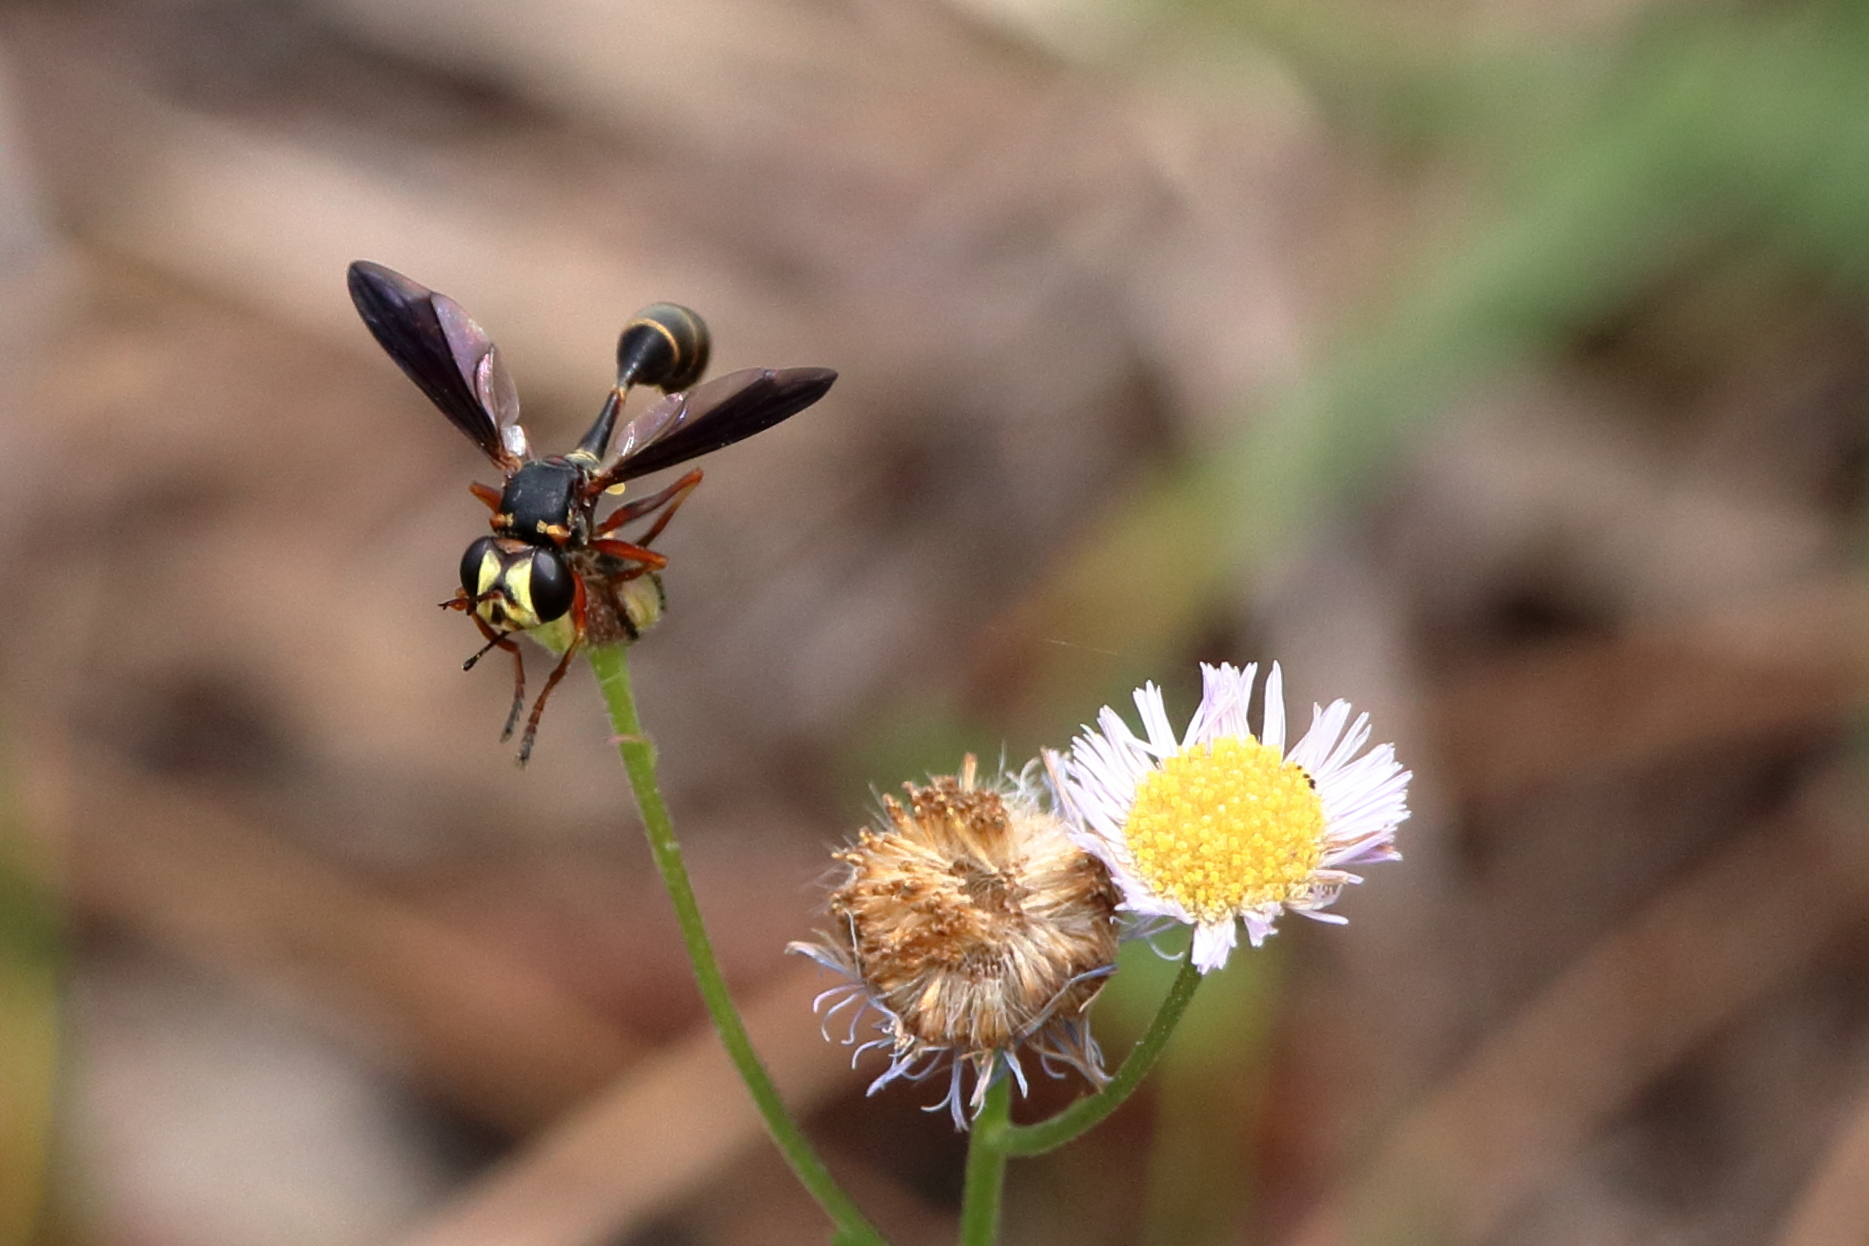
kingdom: Animalia
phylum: Arthropoda
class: Insecta
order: Diptera
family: Conopidae
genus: Physocephala
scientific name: Physocephala sagittaria
